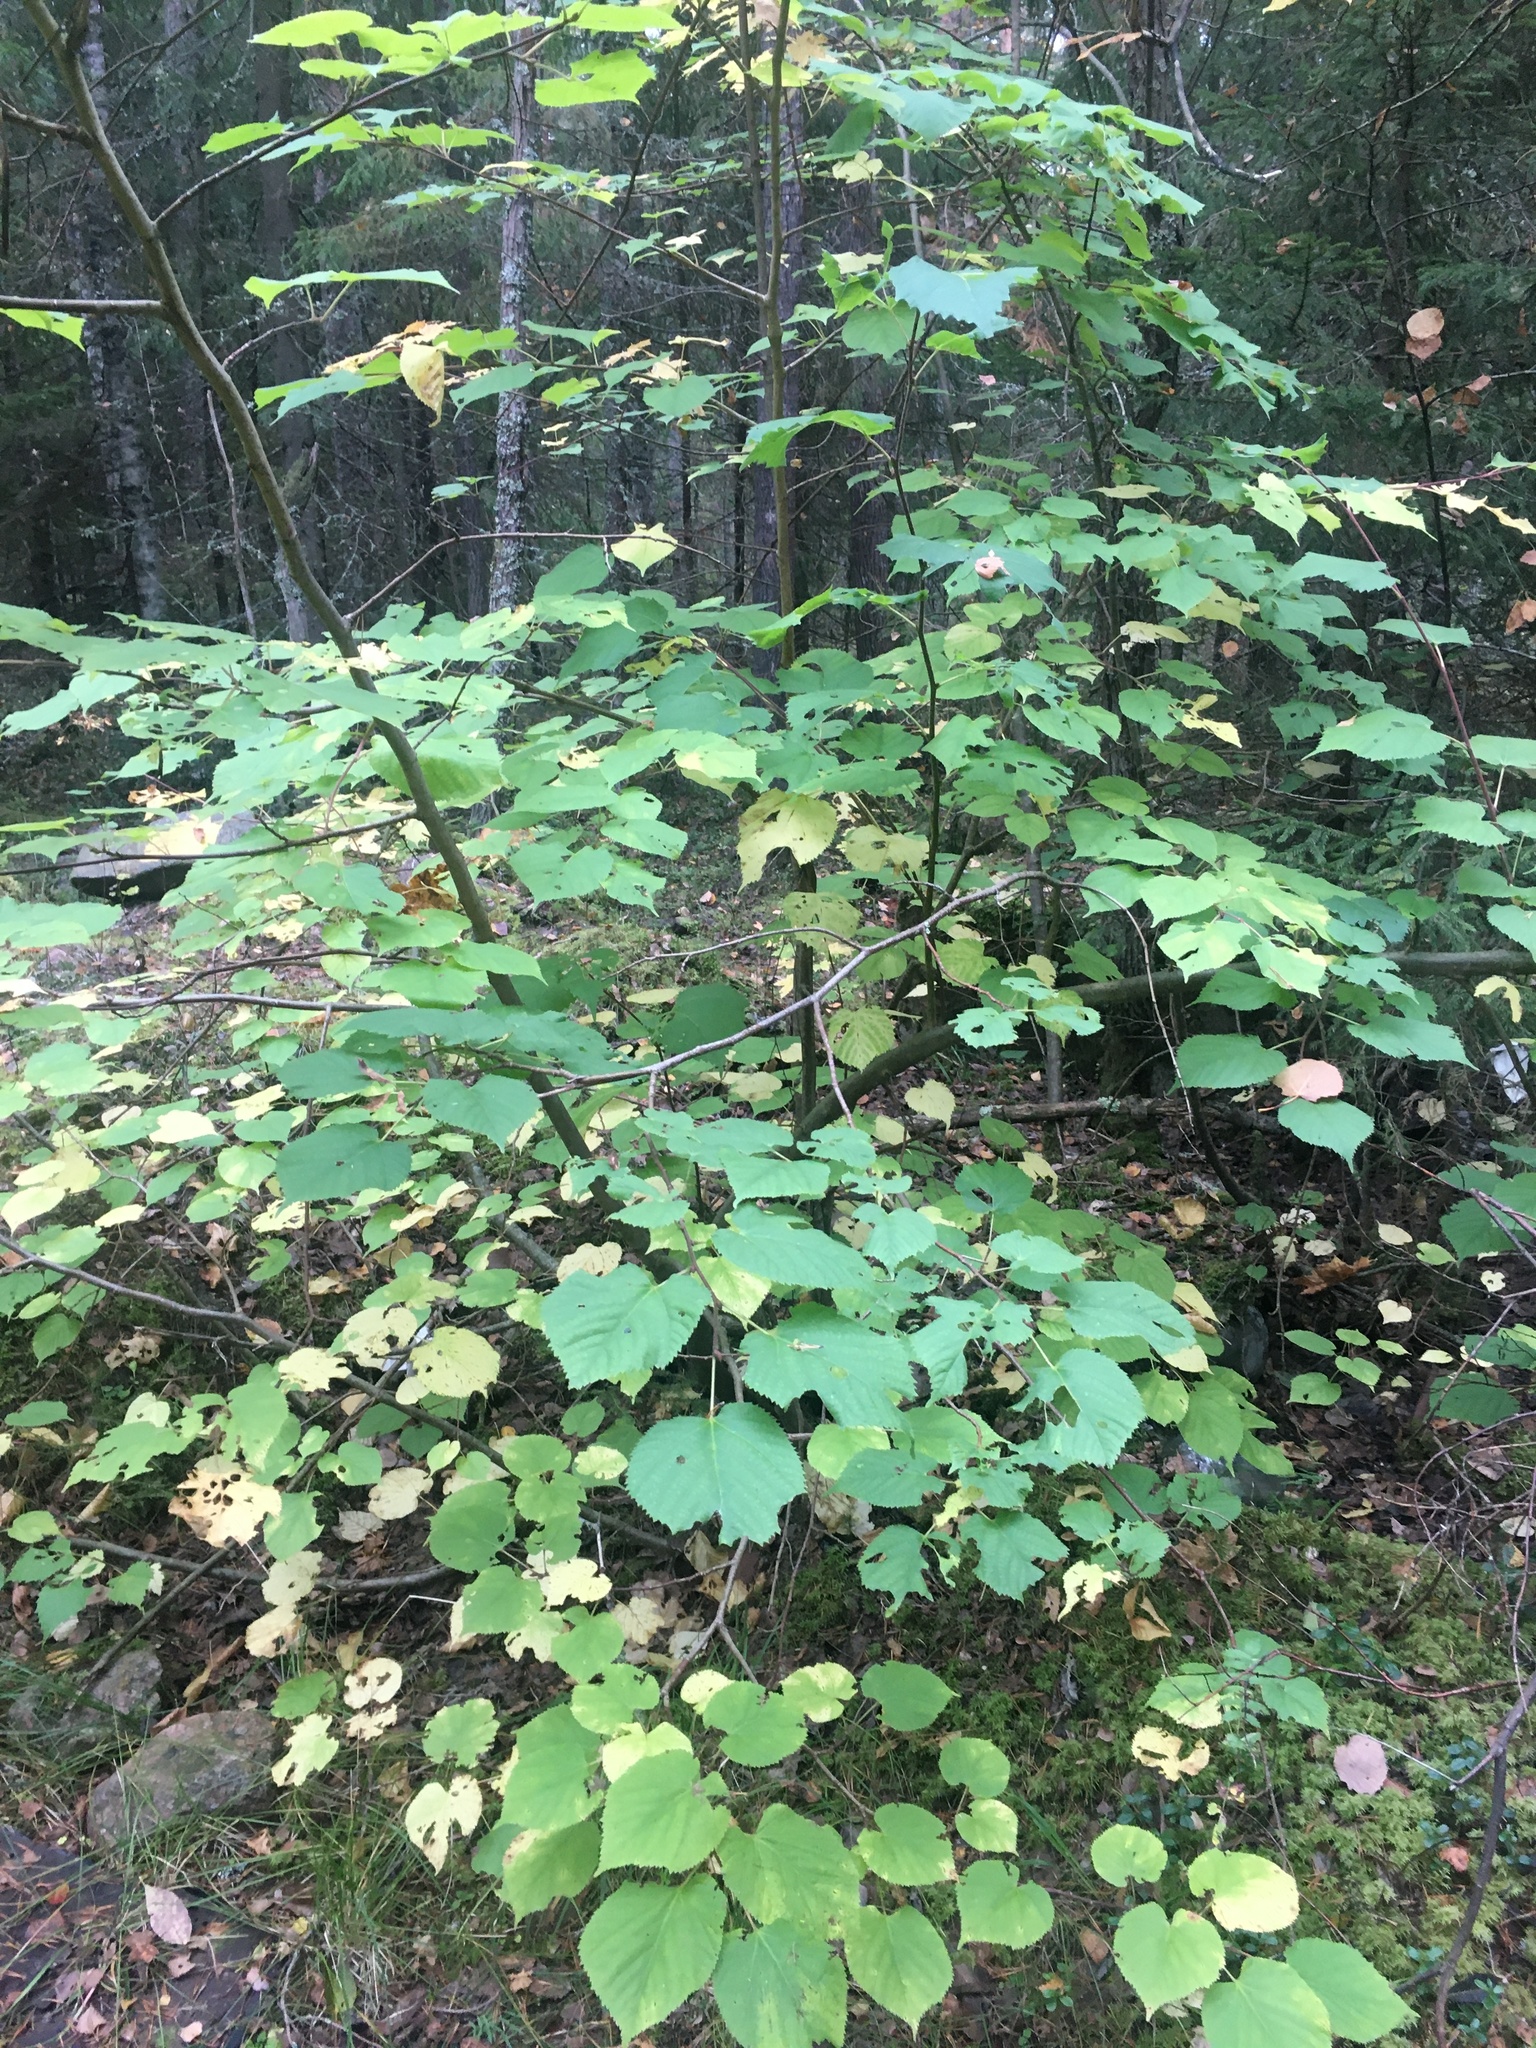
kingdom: Plantae
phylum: Tracheophyta
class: Magnoliopsida
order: Malvales
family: Malvaceae
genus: Tilia
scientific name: Tilia cordata
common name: Small-leaved lime
